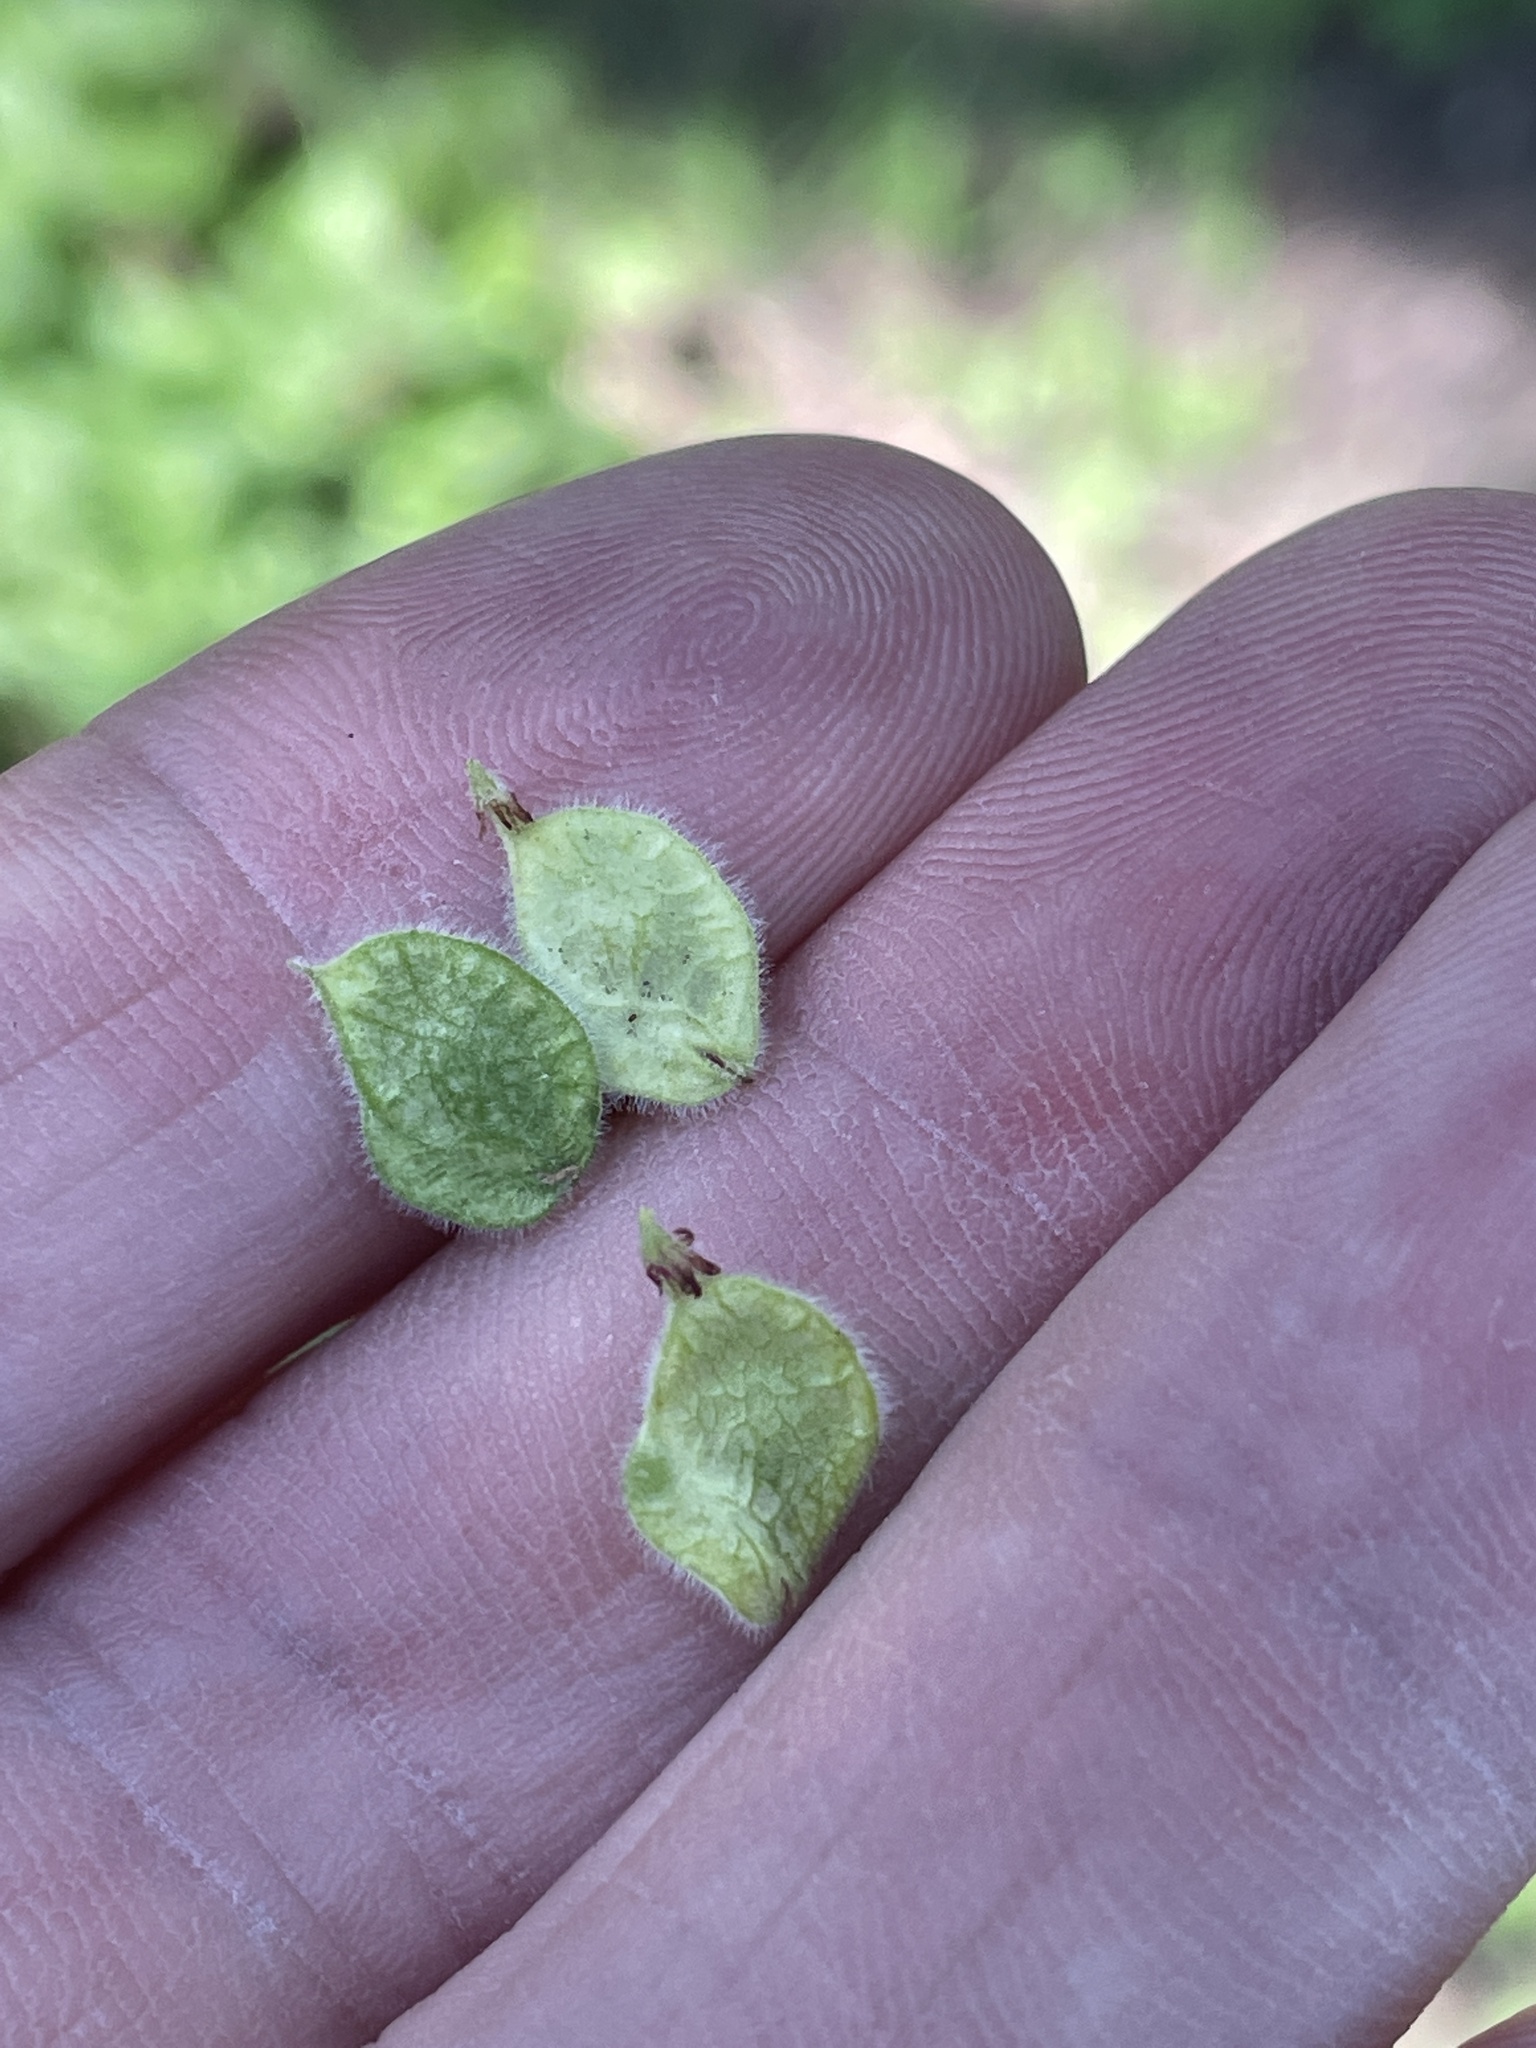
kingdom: Plantae
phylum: Tracheophyta
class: Magnoliopsida
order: Rosales
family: Ulmaceae
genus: Ulmus
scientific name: Ulmus crassifolia
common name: Basket elm
